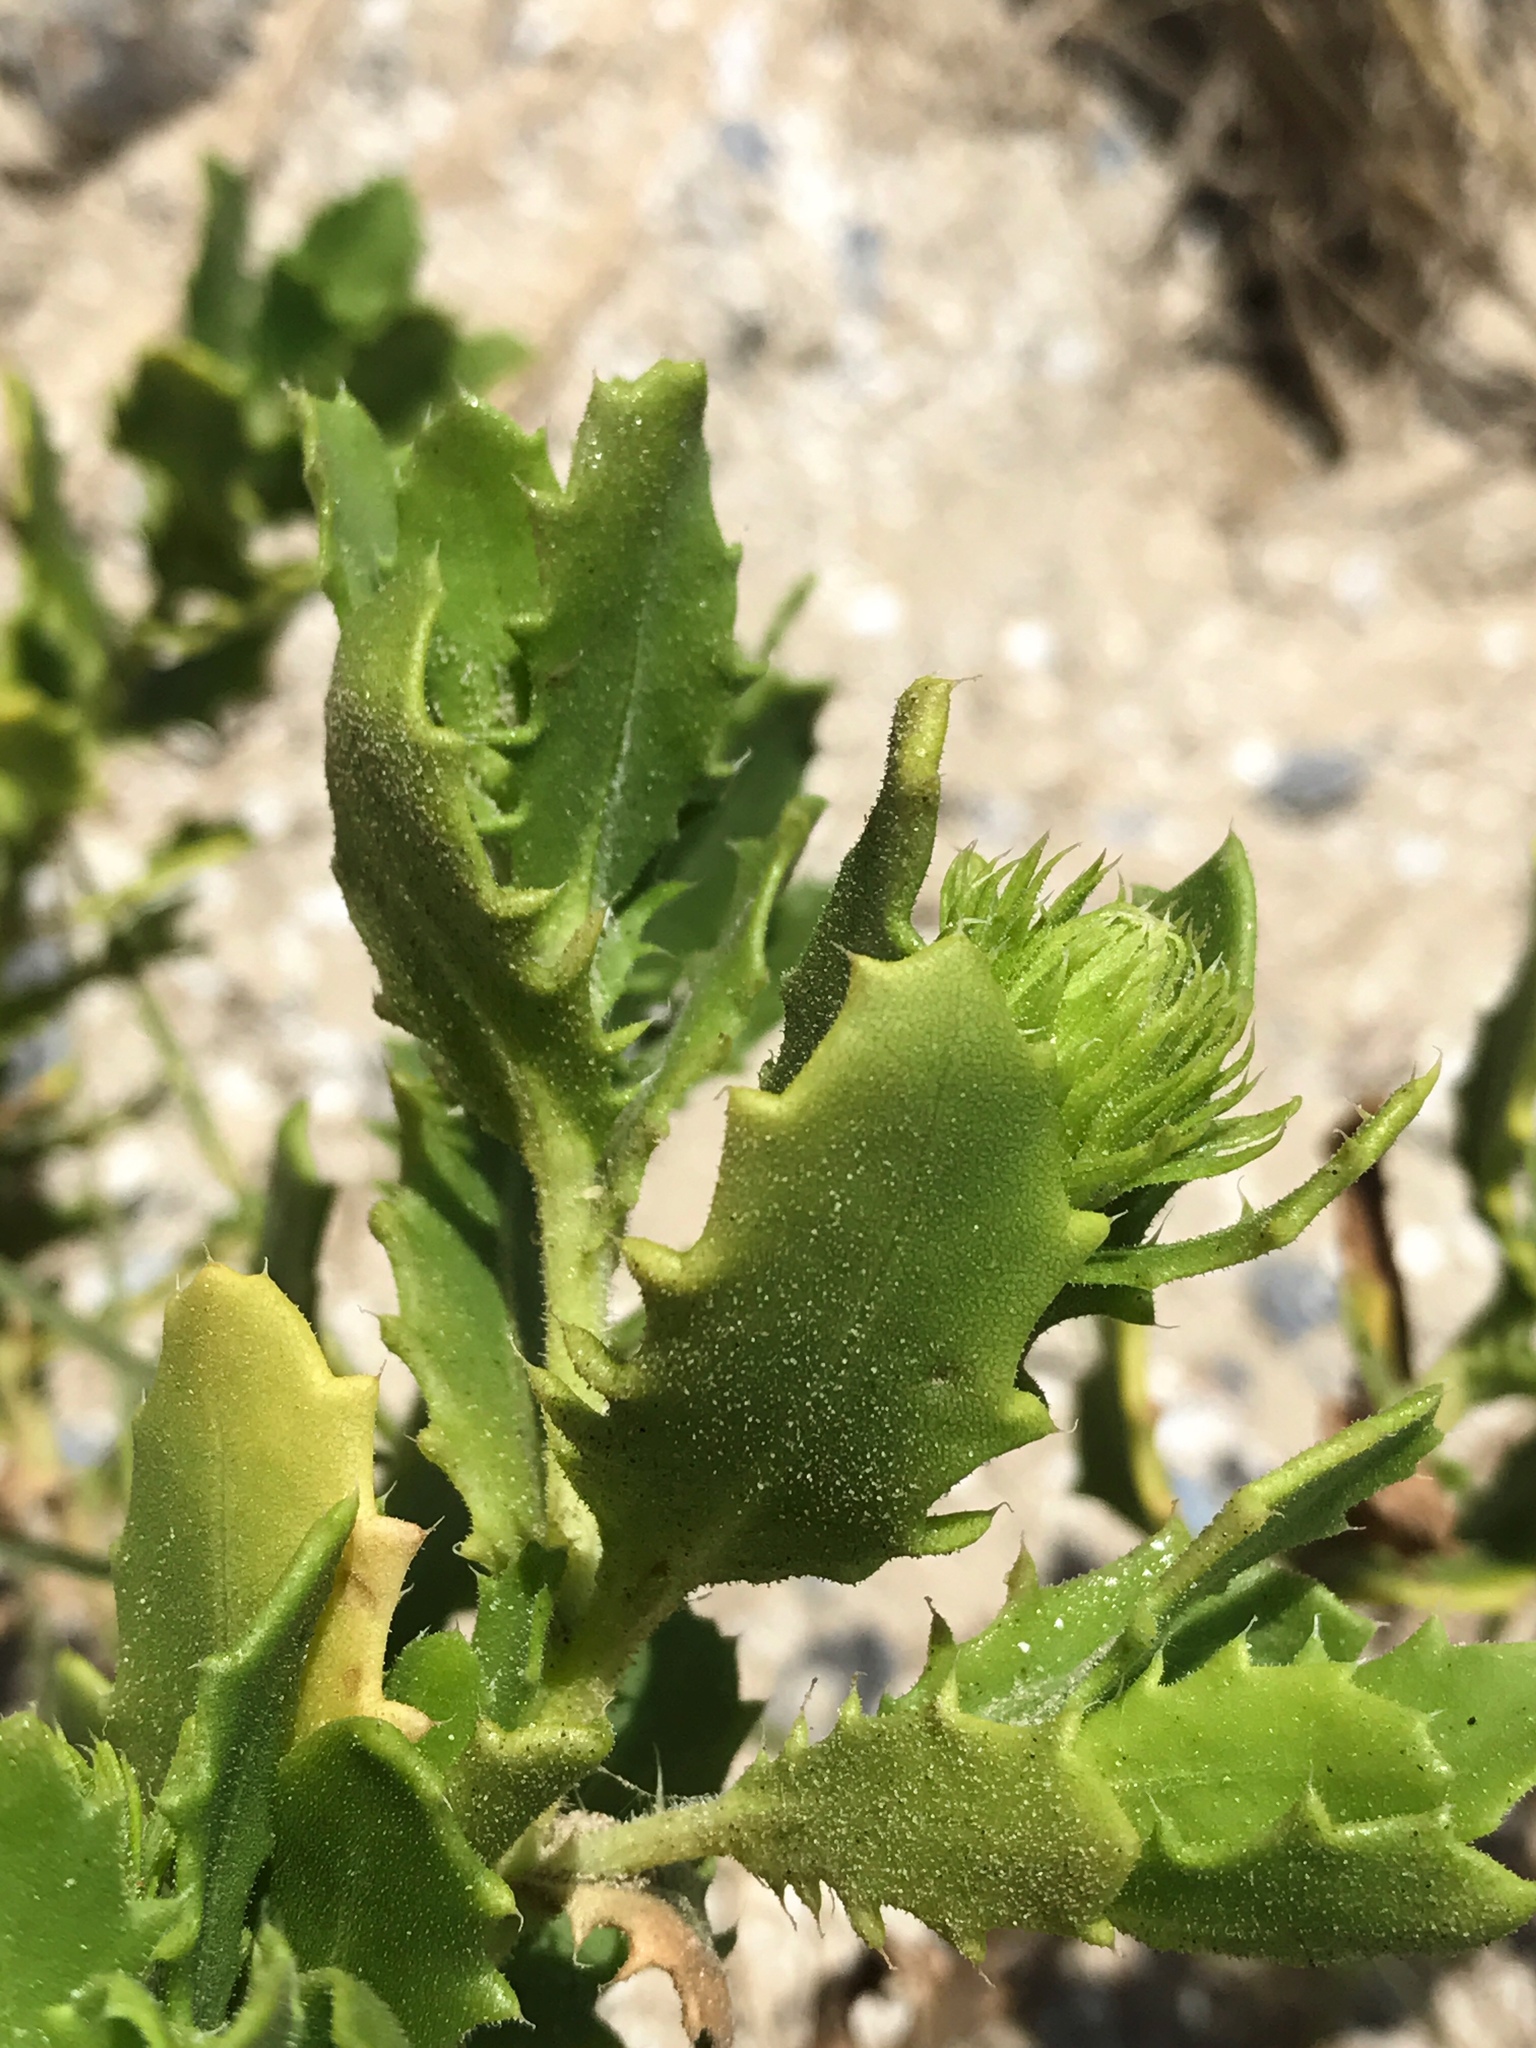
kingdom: Plantae
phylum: Tracheophyta
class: Magnoliopsida
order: Asterales
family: Asteraceae
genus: Rayjacksonia
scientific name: Rayjacksonia phyllocephala
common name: Gulf coast camphor daisy
